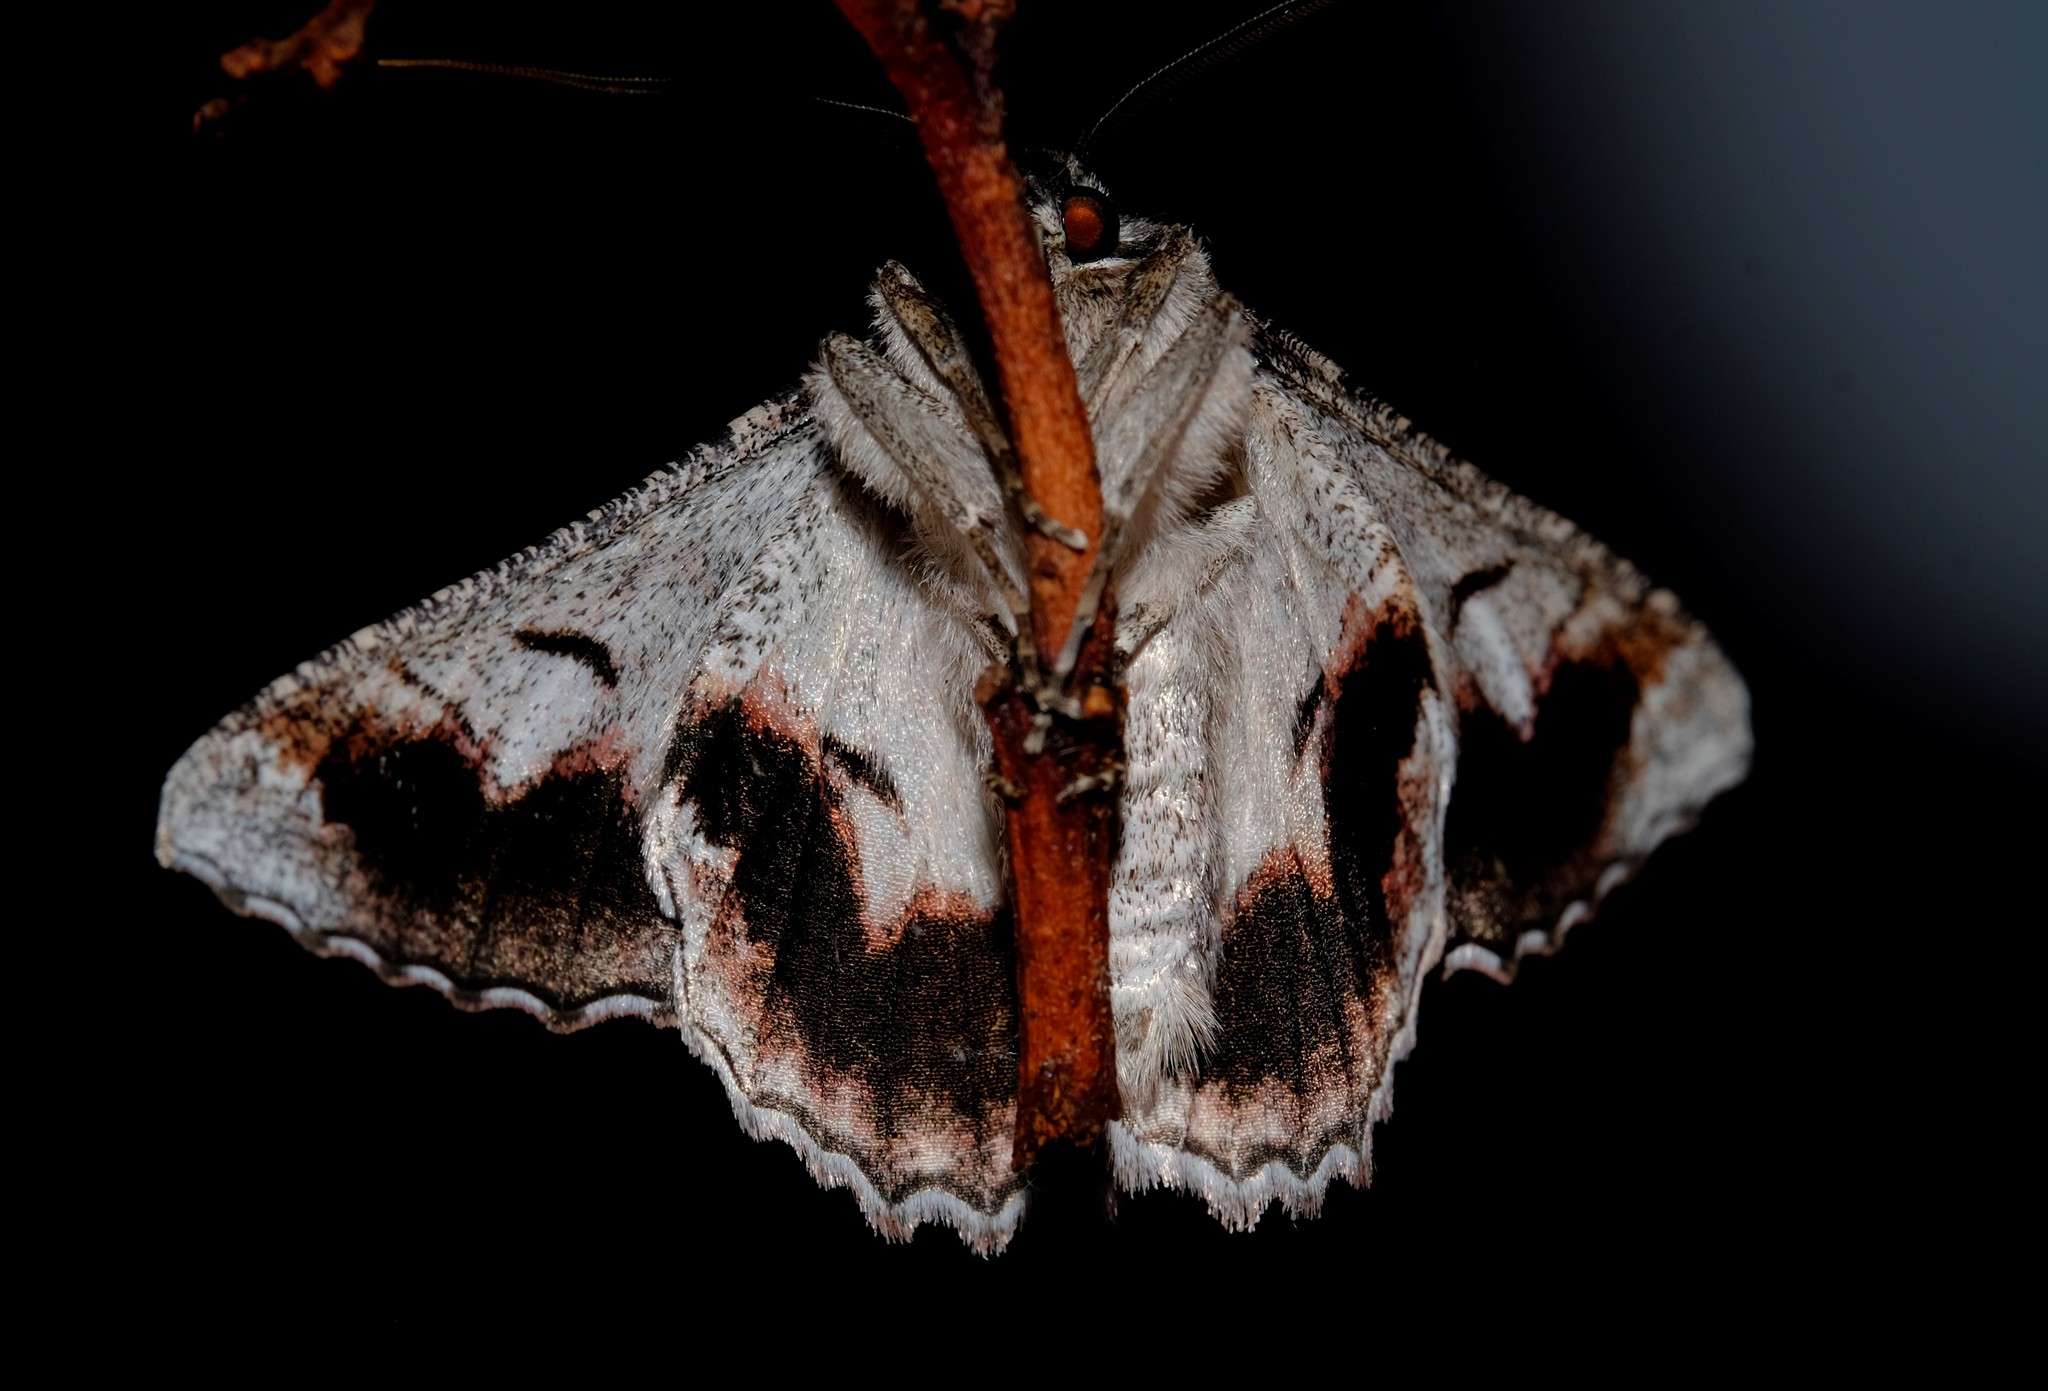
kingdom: Animalia
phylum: Arthropoda
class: Insecta
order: Lepidoptera
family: Geometridae
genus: Hypobapta
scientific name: Hypobapta tachyhalotaria
